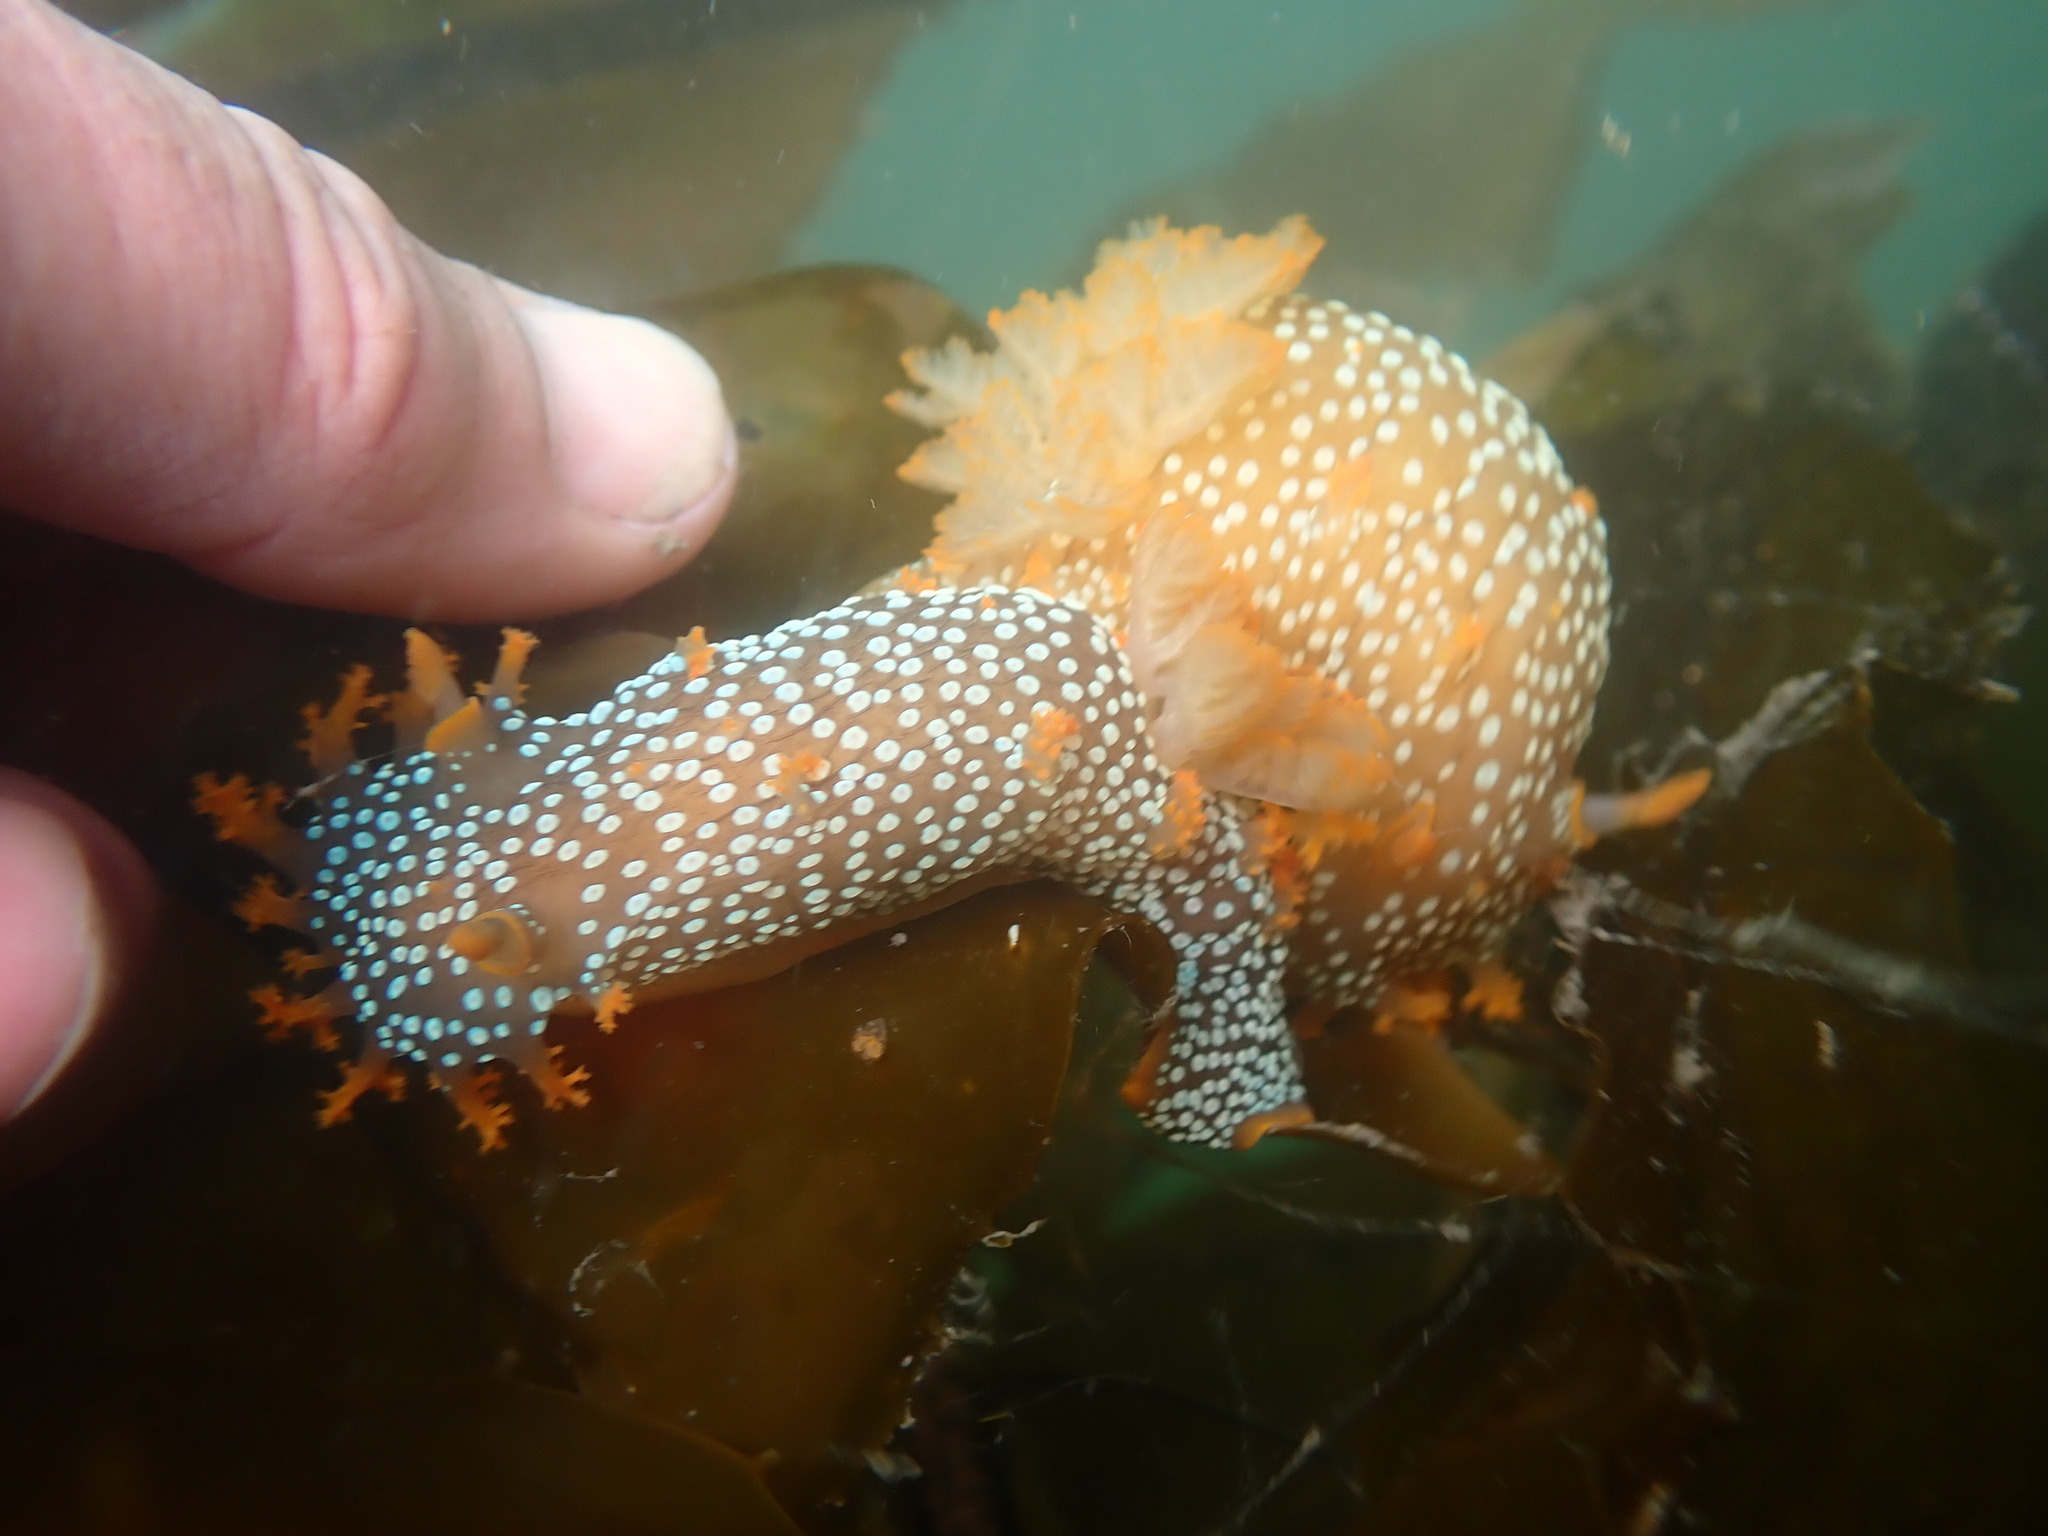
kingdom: Animalia
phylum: Mollusca
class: Gastropoda
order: Nudibranchia
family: Polyceridae
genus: Triopha
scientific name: Triopha maculata
